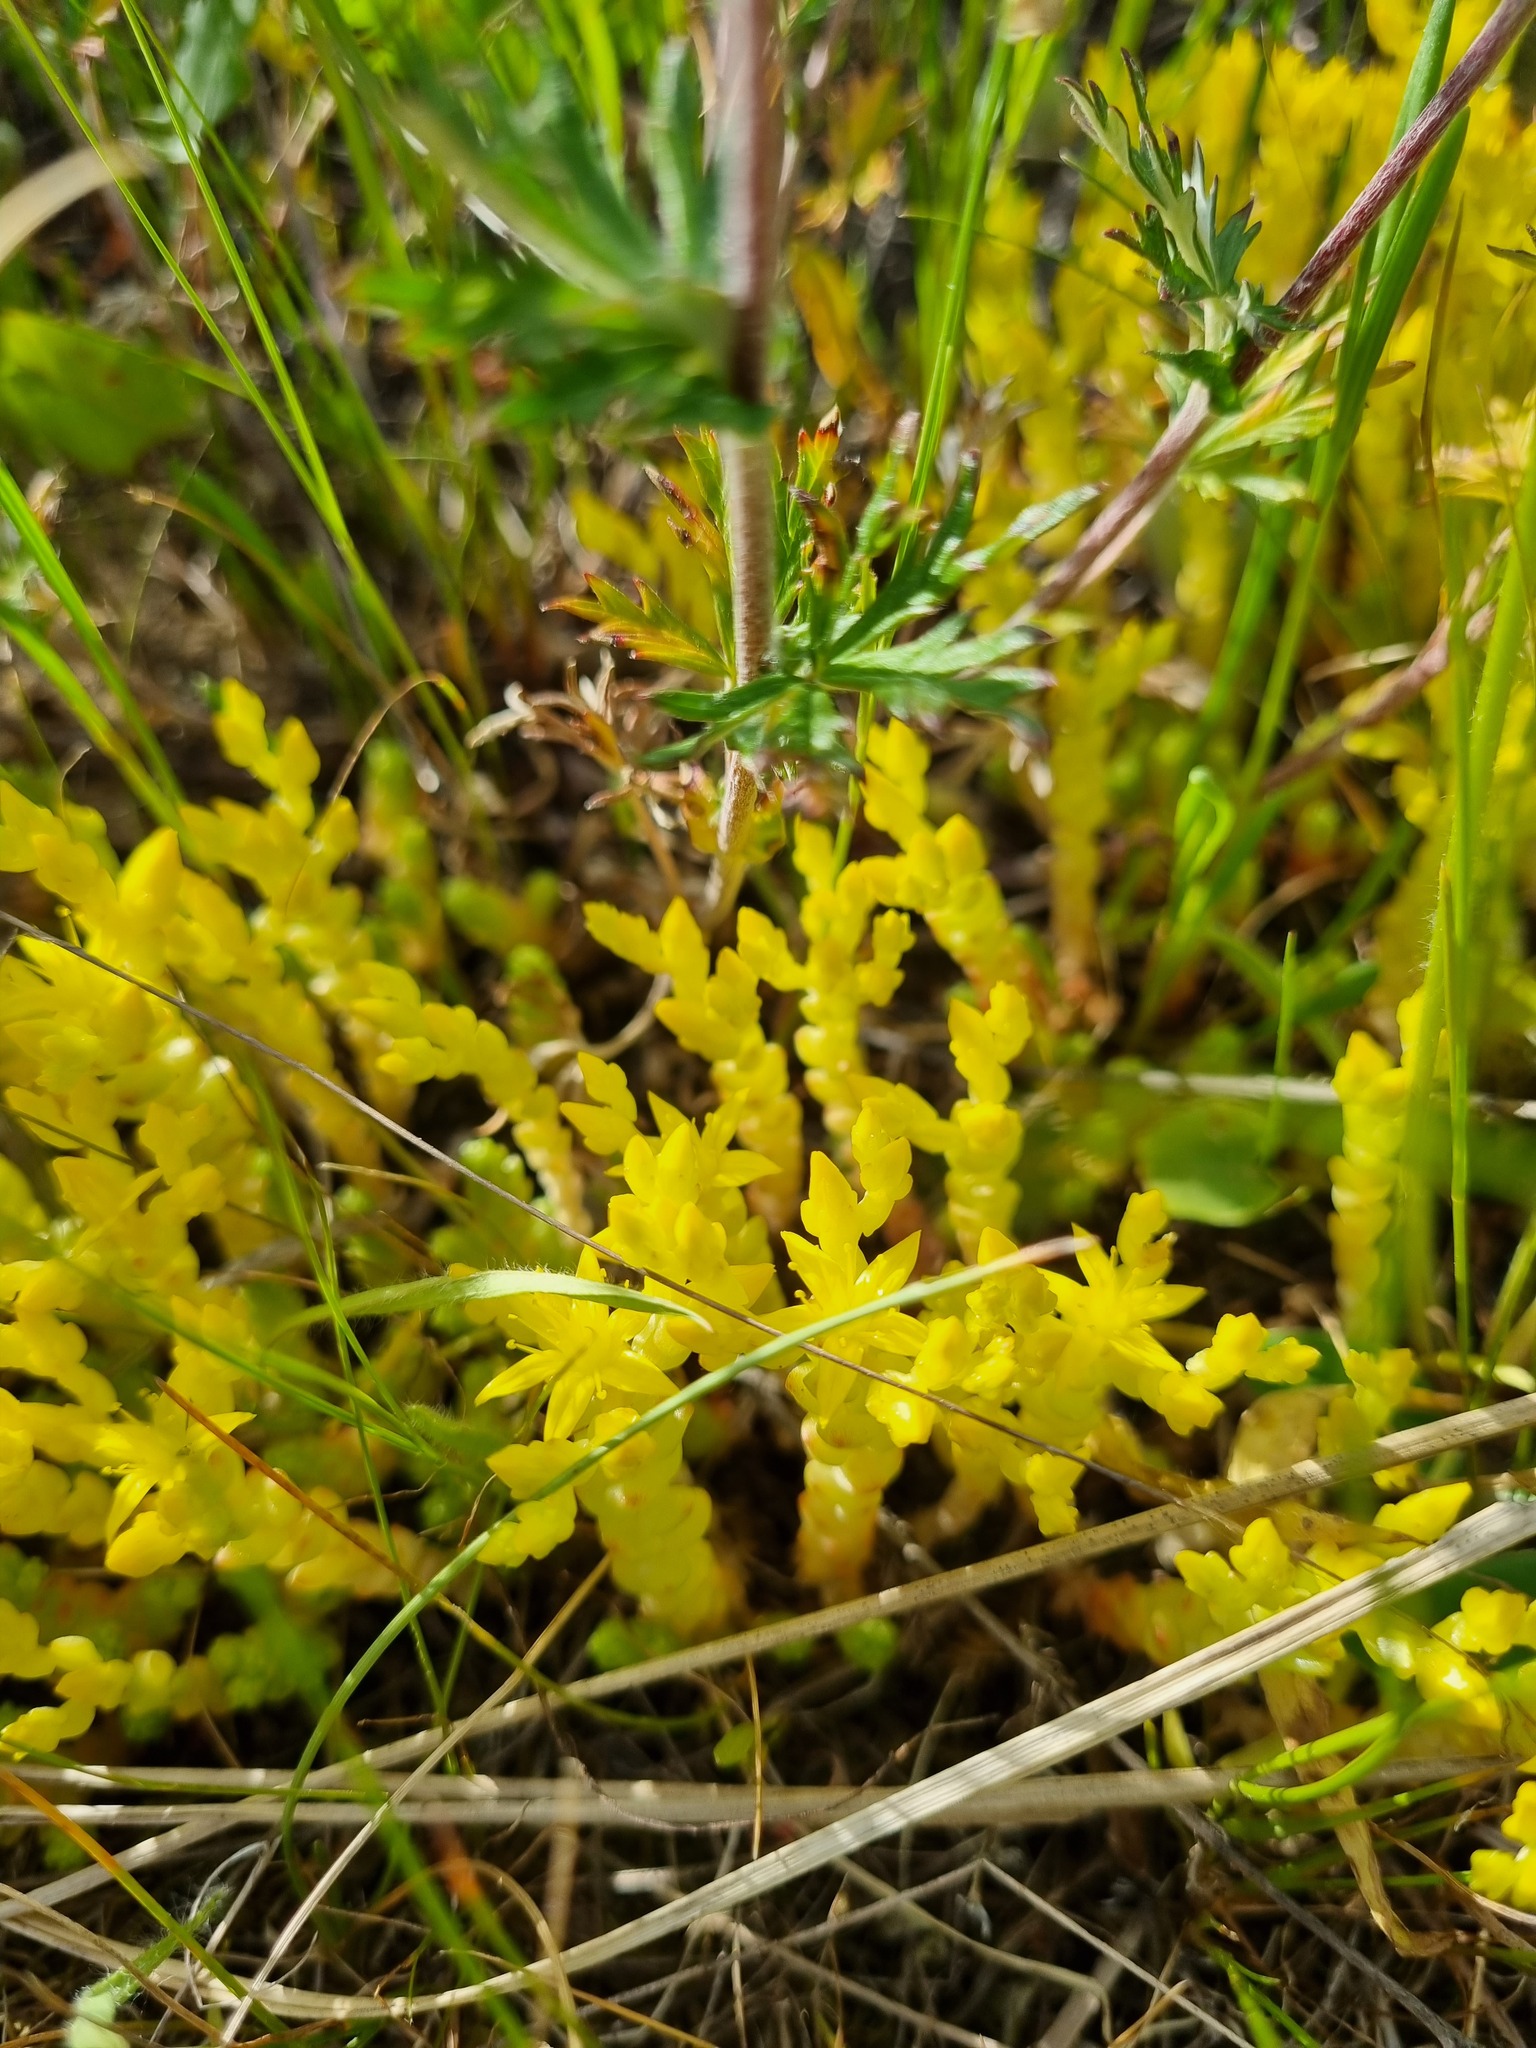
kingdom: Plantae
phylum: Tracheophyta
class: Magnoliopsida
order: Saxifragales
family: Crassulaceae
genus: Sedum
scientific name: Sedum acre
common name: Biting stonecrop
